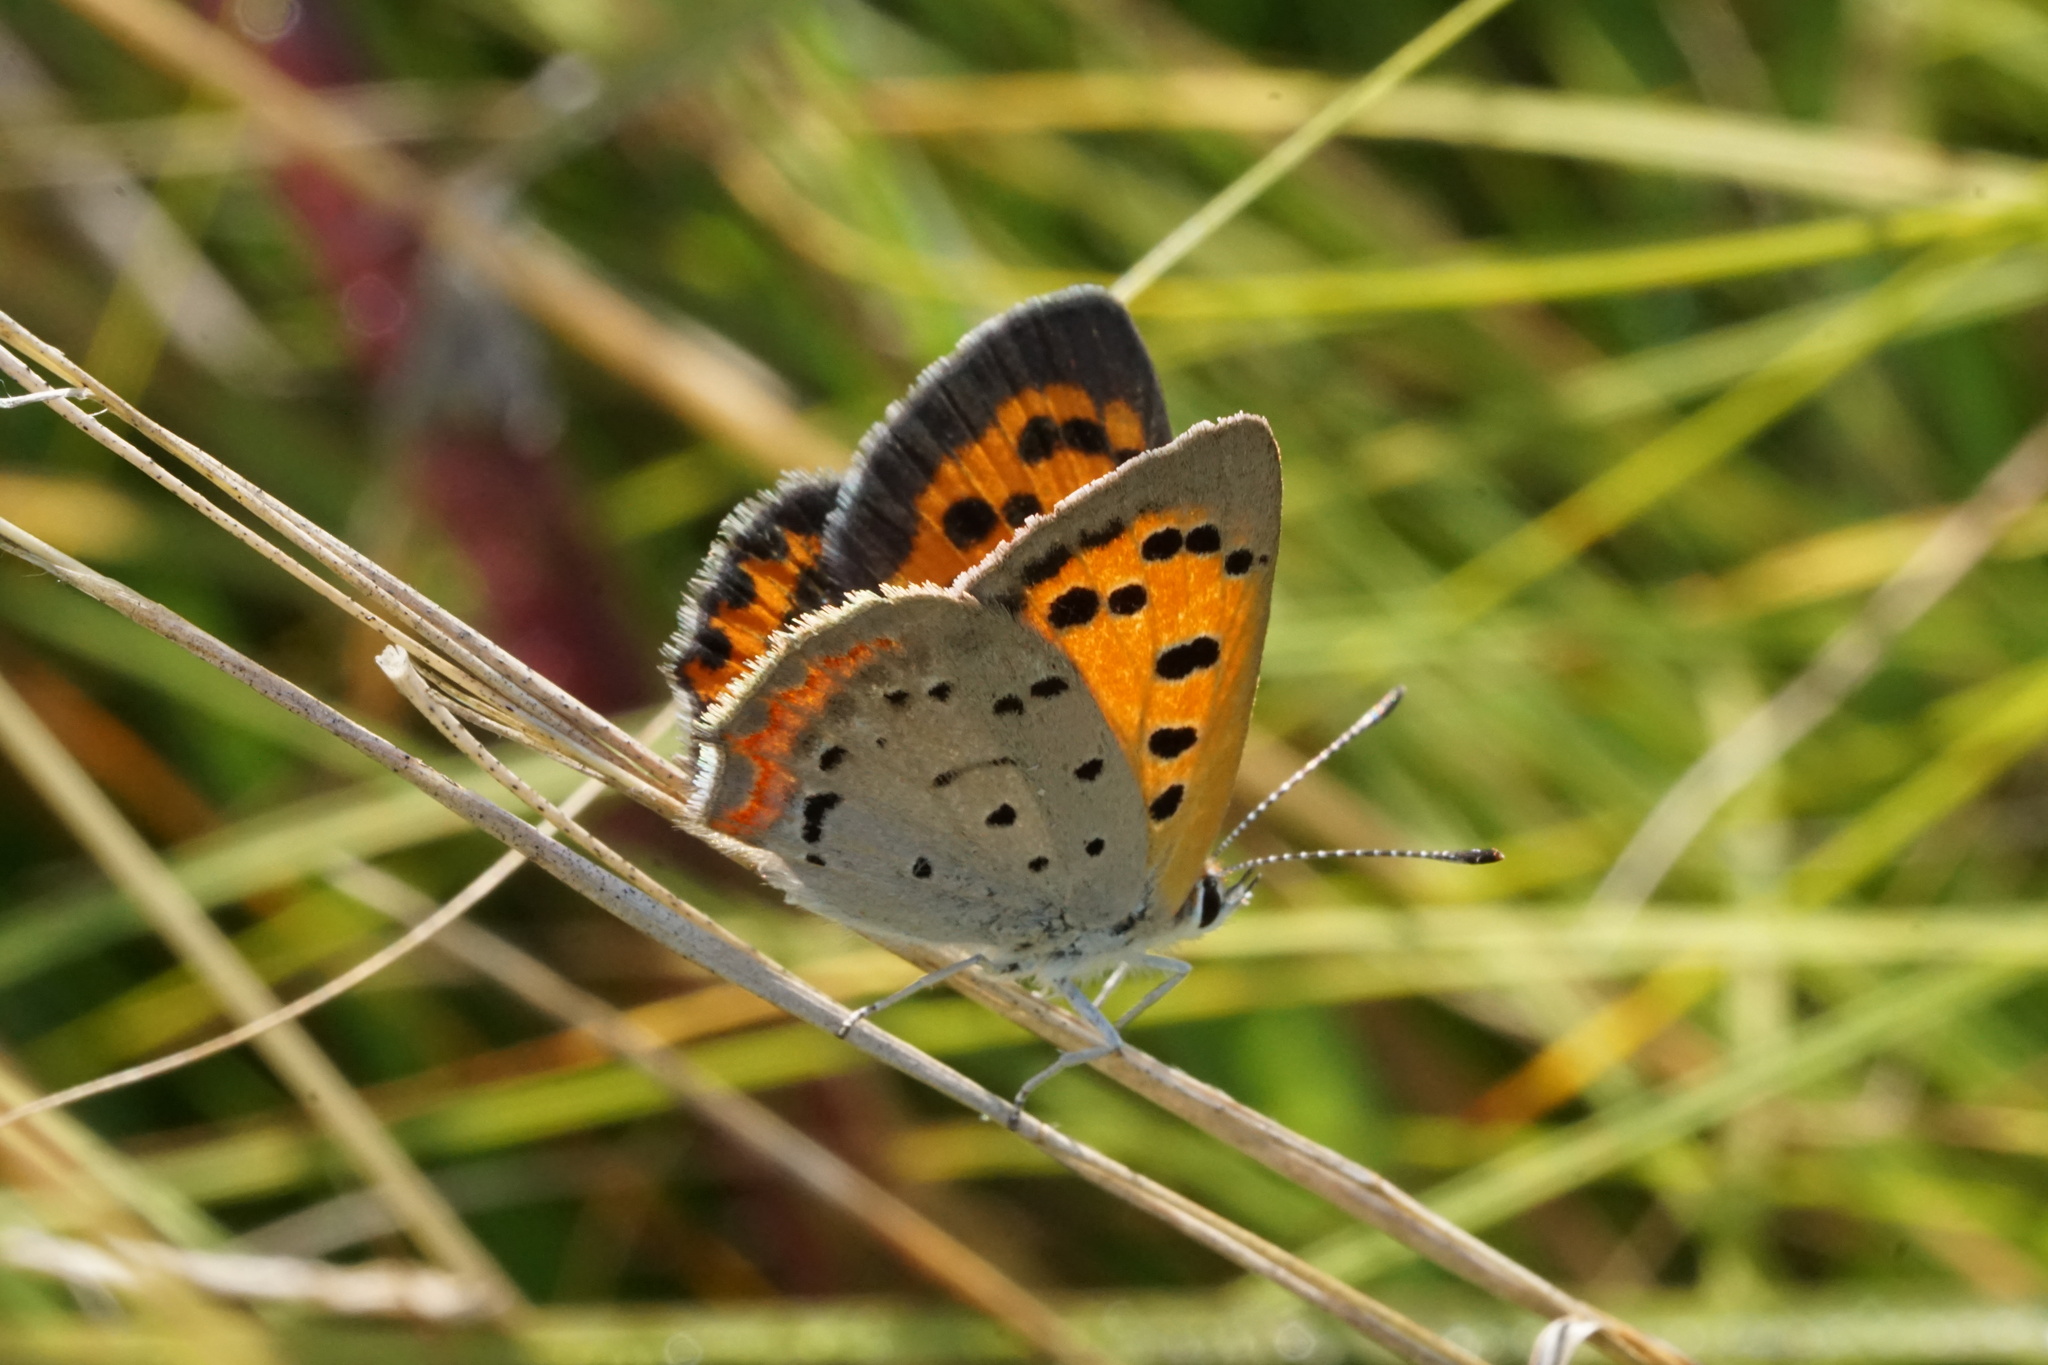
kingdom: Animalia
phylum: Arthropoda
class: Insecta
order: Lepidoptera
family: Lycaenidae
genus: Lycaena
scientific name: Lycaena hypophlaeas
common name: American copper
